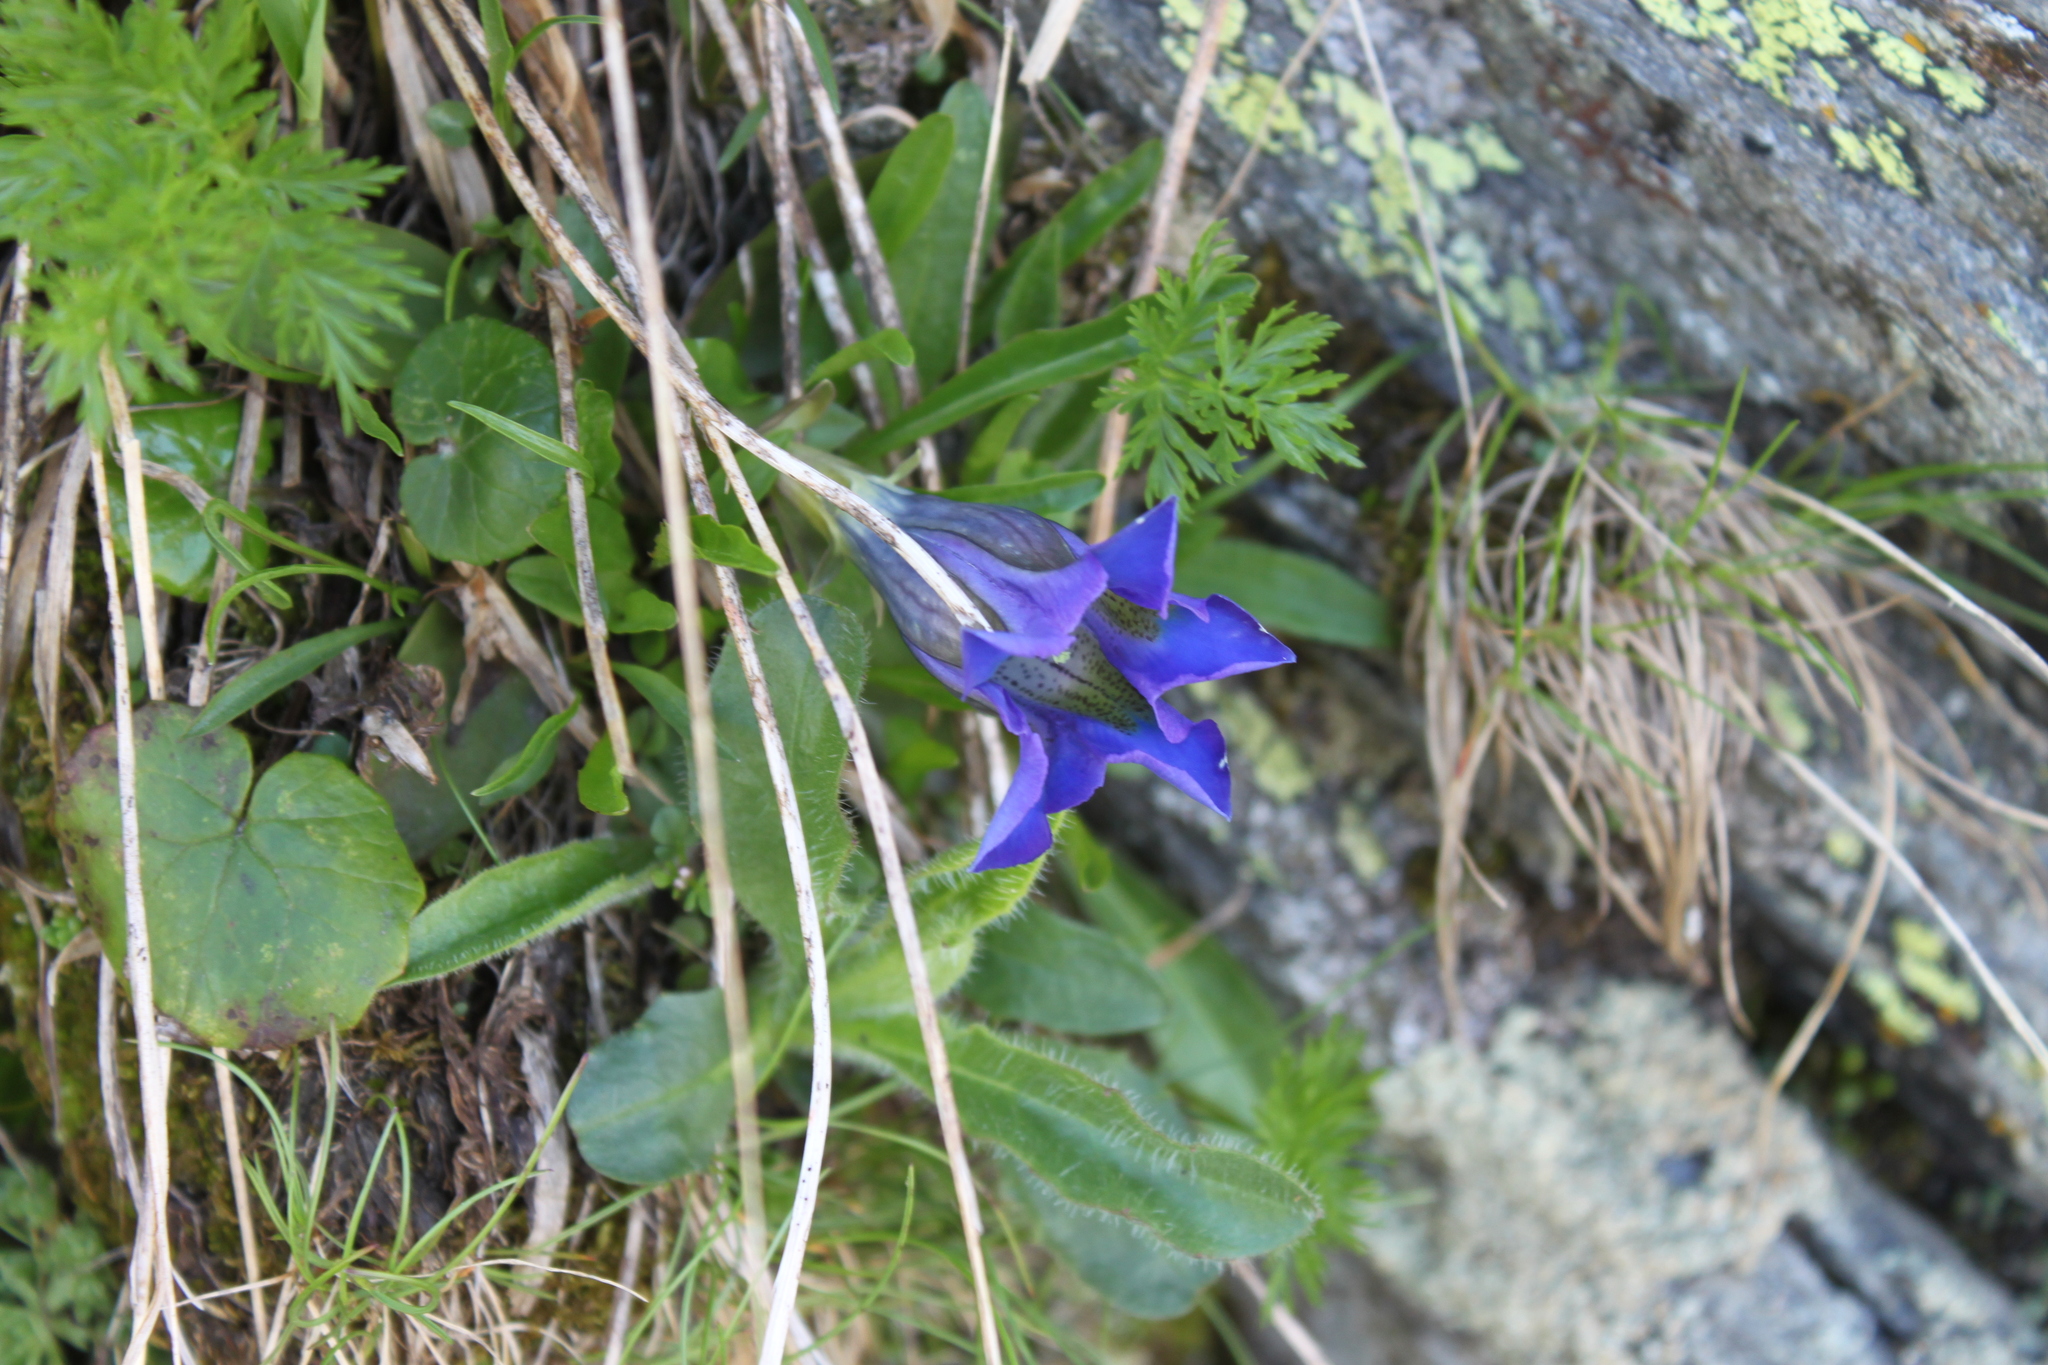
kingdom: Plantae
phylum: Tracheophyta
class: Magnoliopsida
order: Gentianales
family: Gentianaceae
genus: Gentiana
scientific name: Gentiana acaulis
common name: Trumpet gentian
